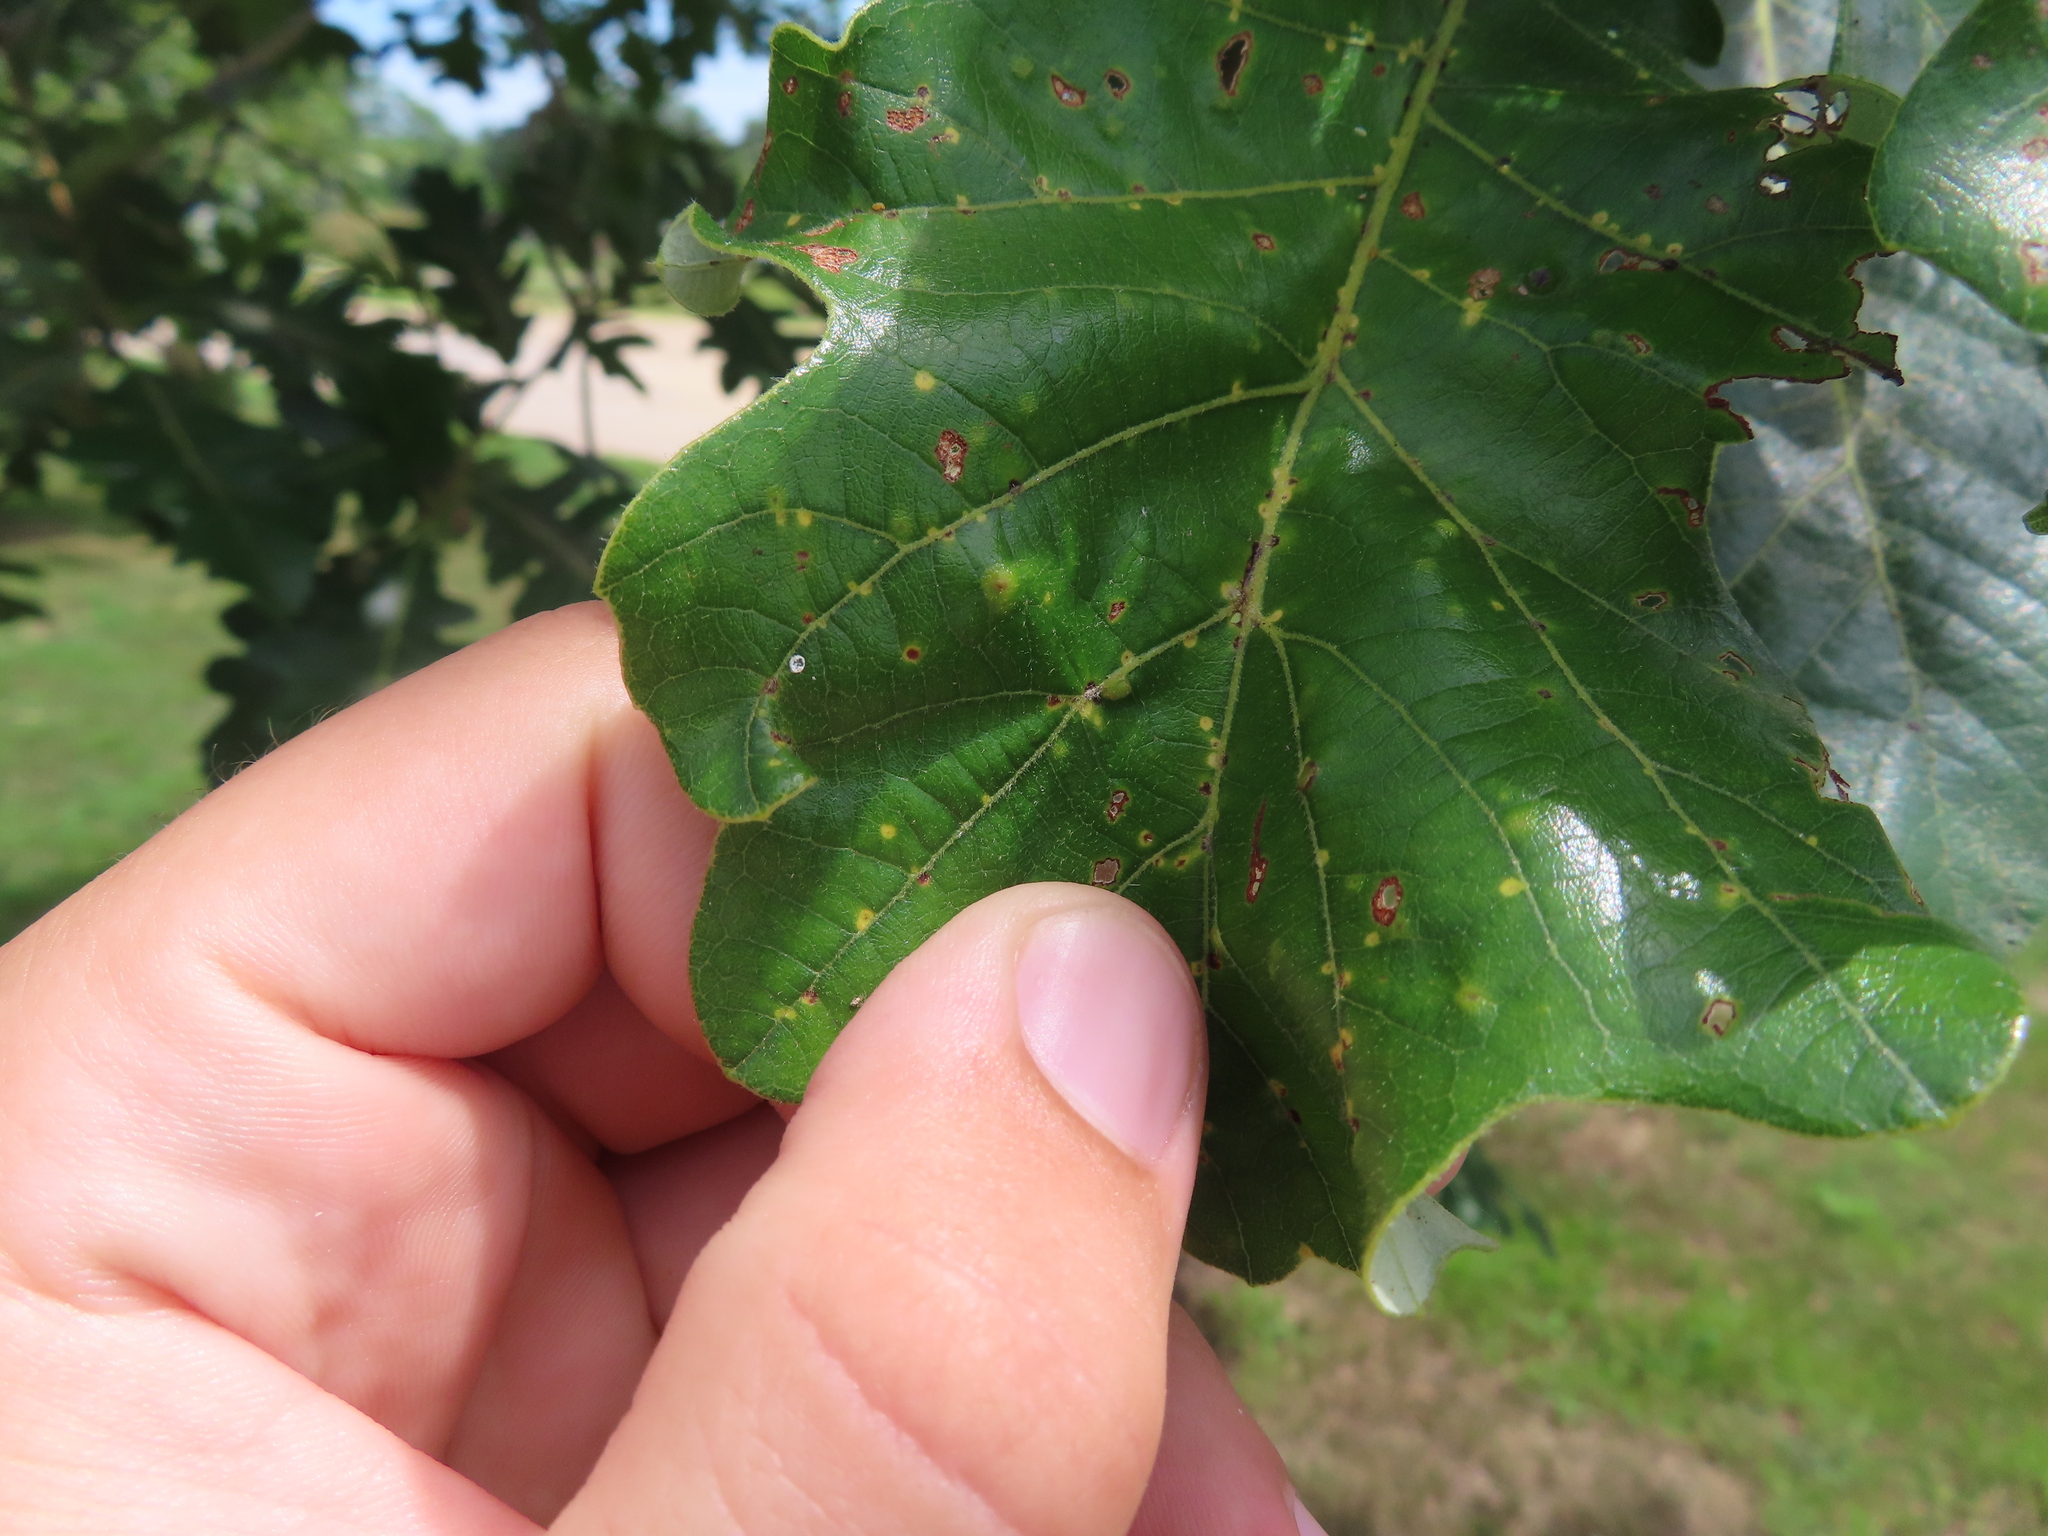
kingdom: Animalia
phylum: Arthropoda
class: Insecta
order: Hymenoptera
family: Cynipidae
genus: Neuroterus
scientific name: Neuroterus saltarius
